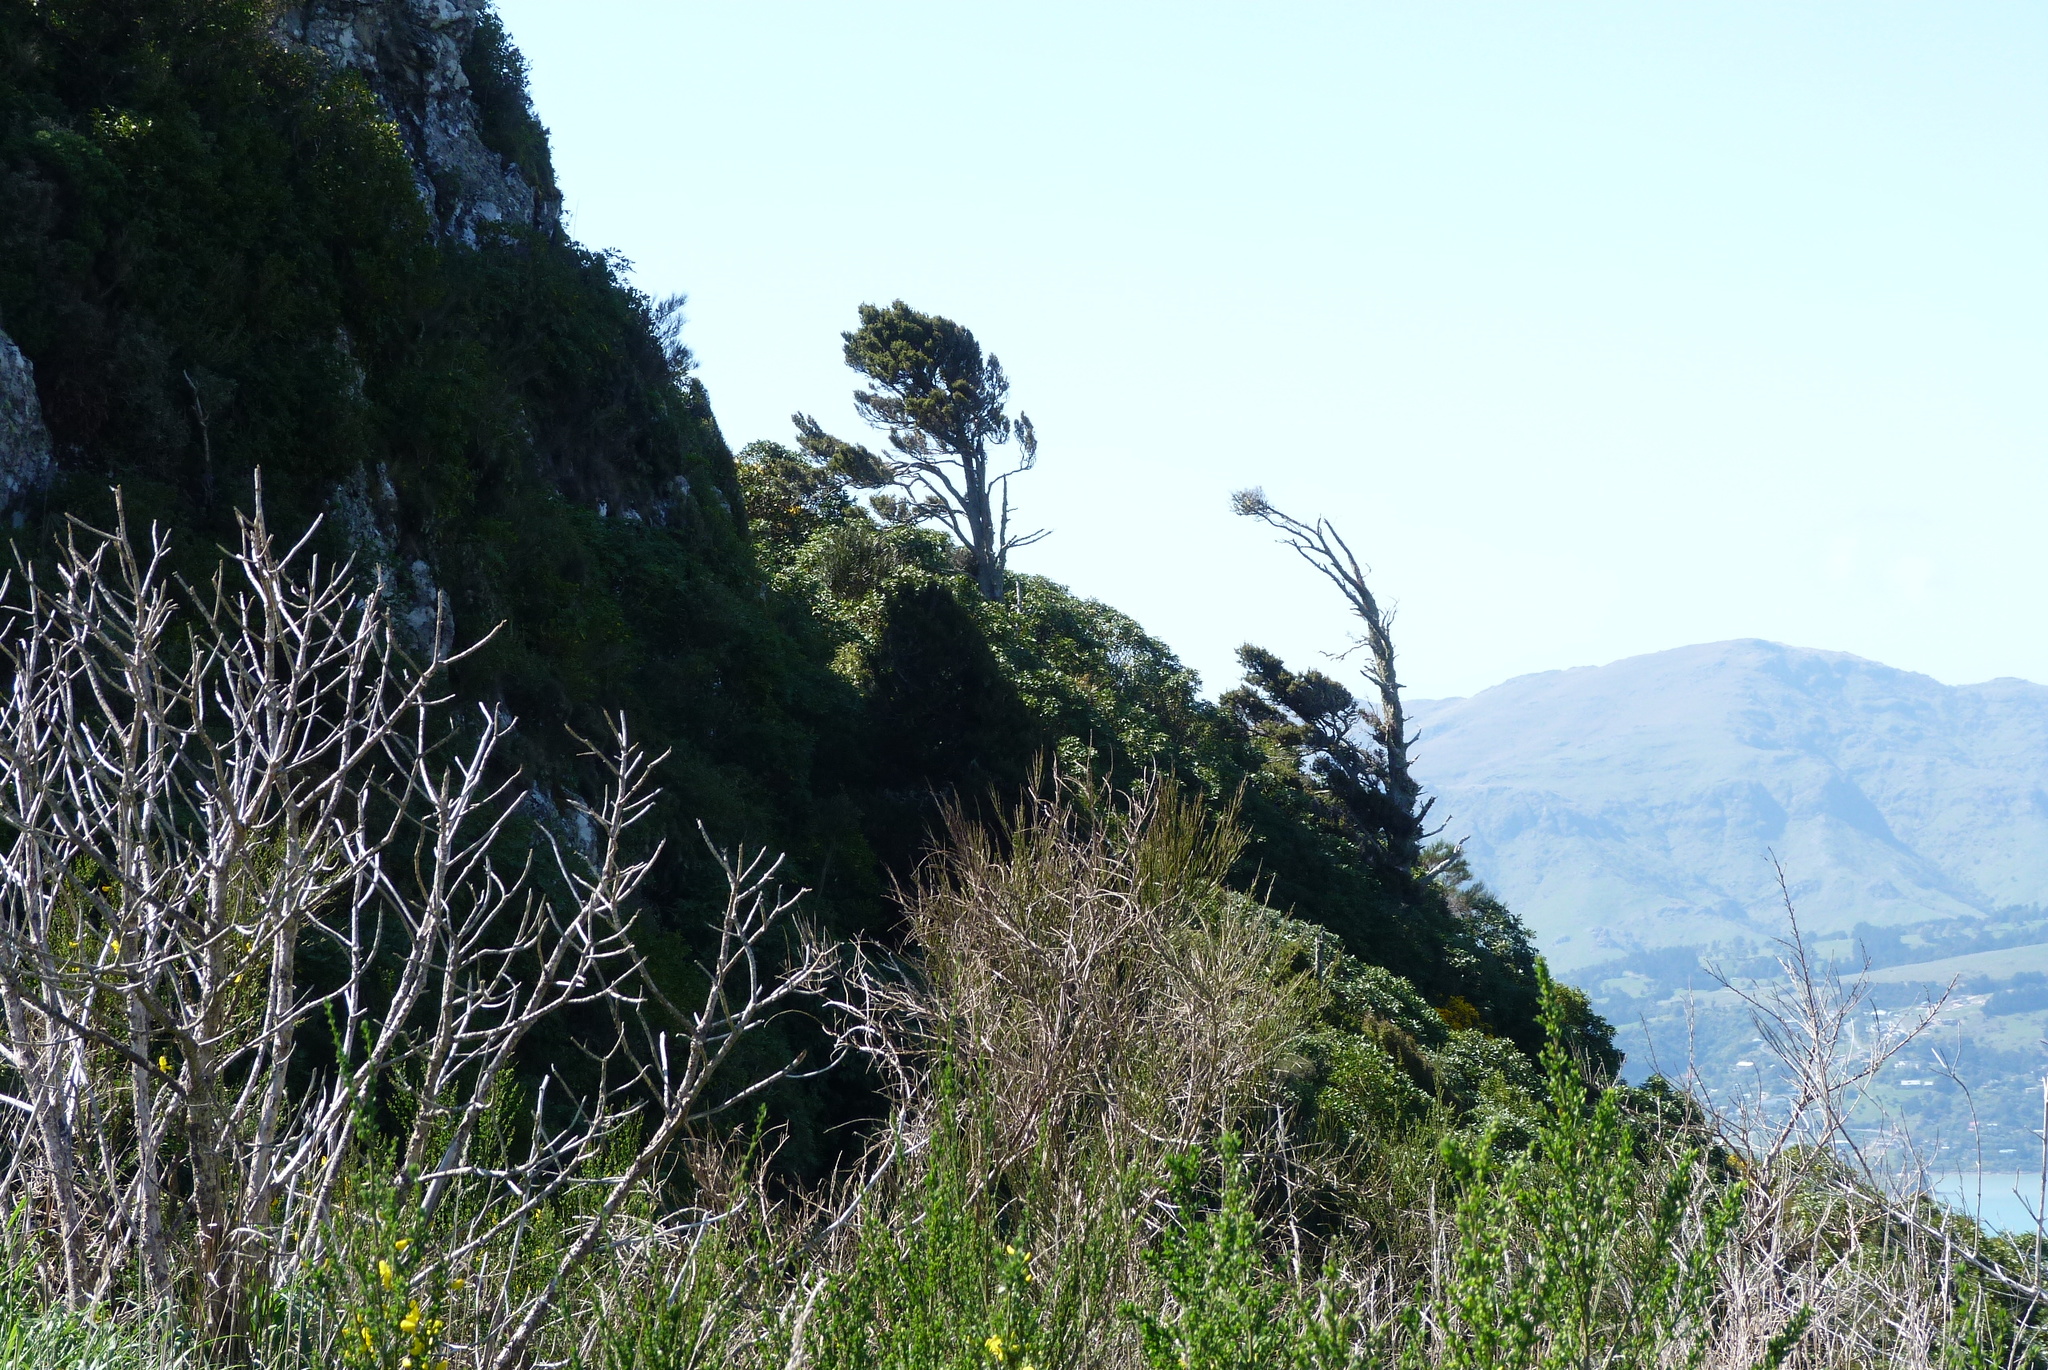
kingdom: Plantae
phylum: Tracheophyta
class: Pinopsida
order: Pinales
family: Podocarpaceae
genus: Podocarpus
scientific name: Podocarpus laetus
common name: Hall's totara
